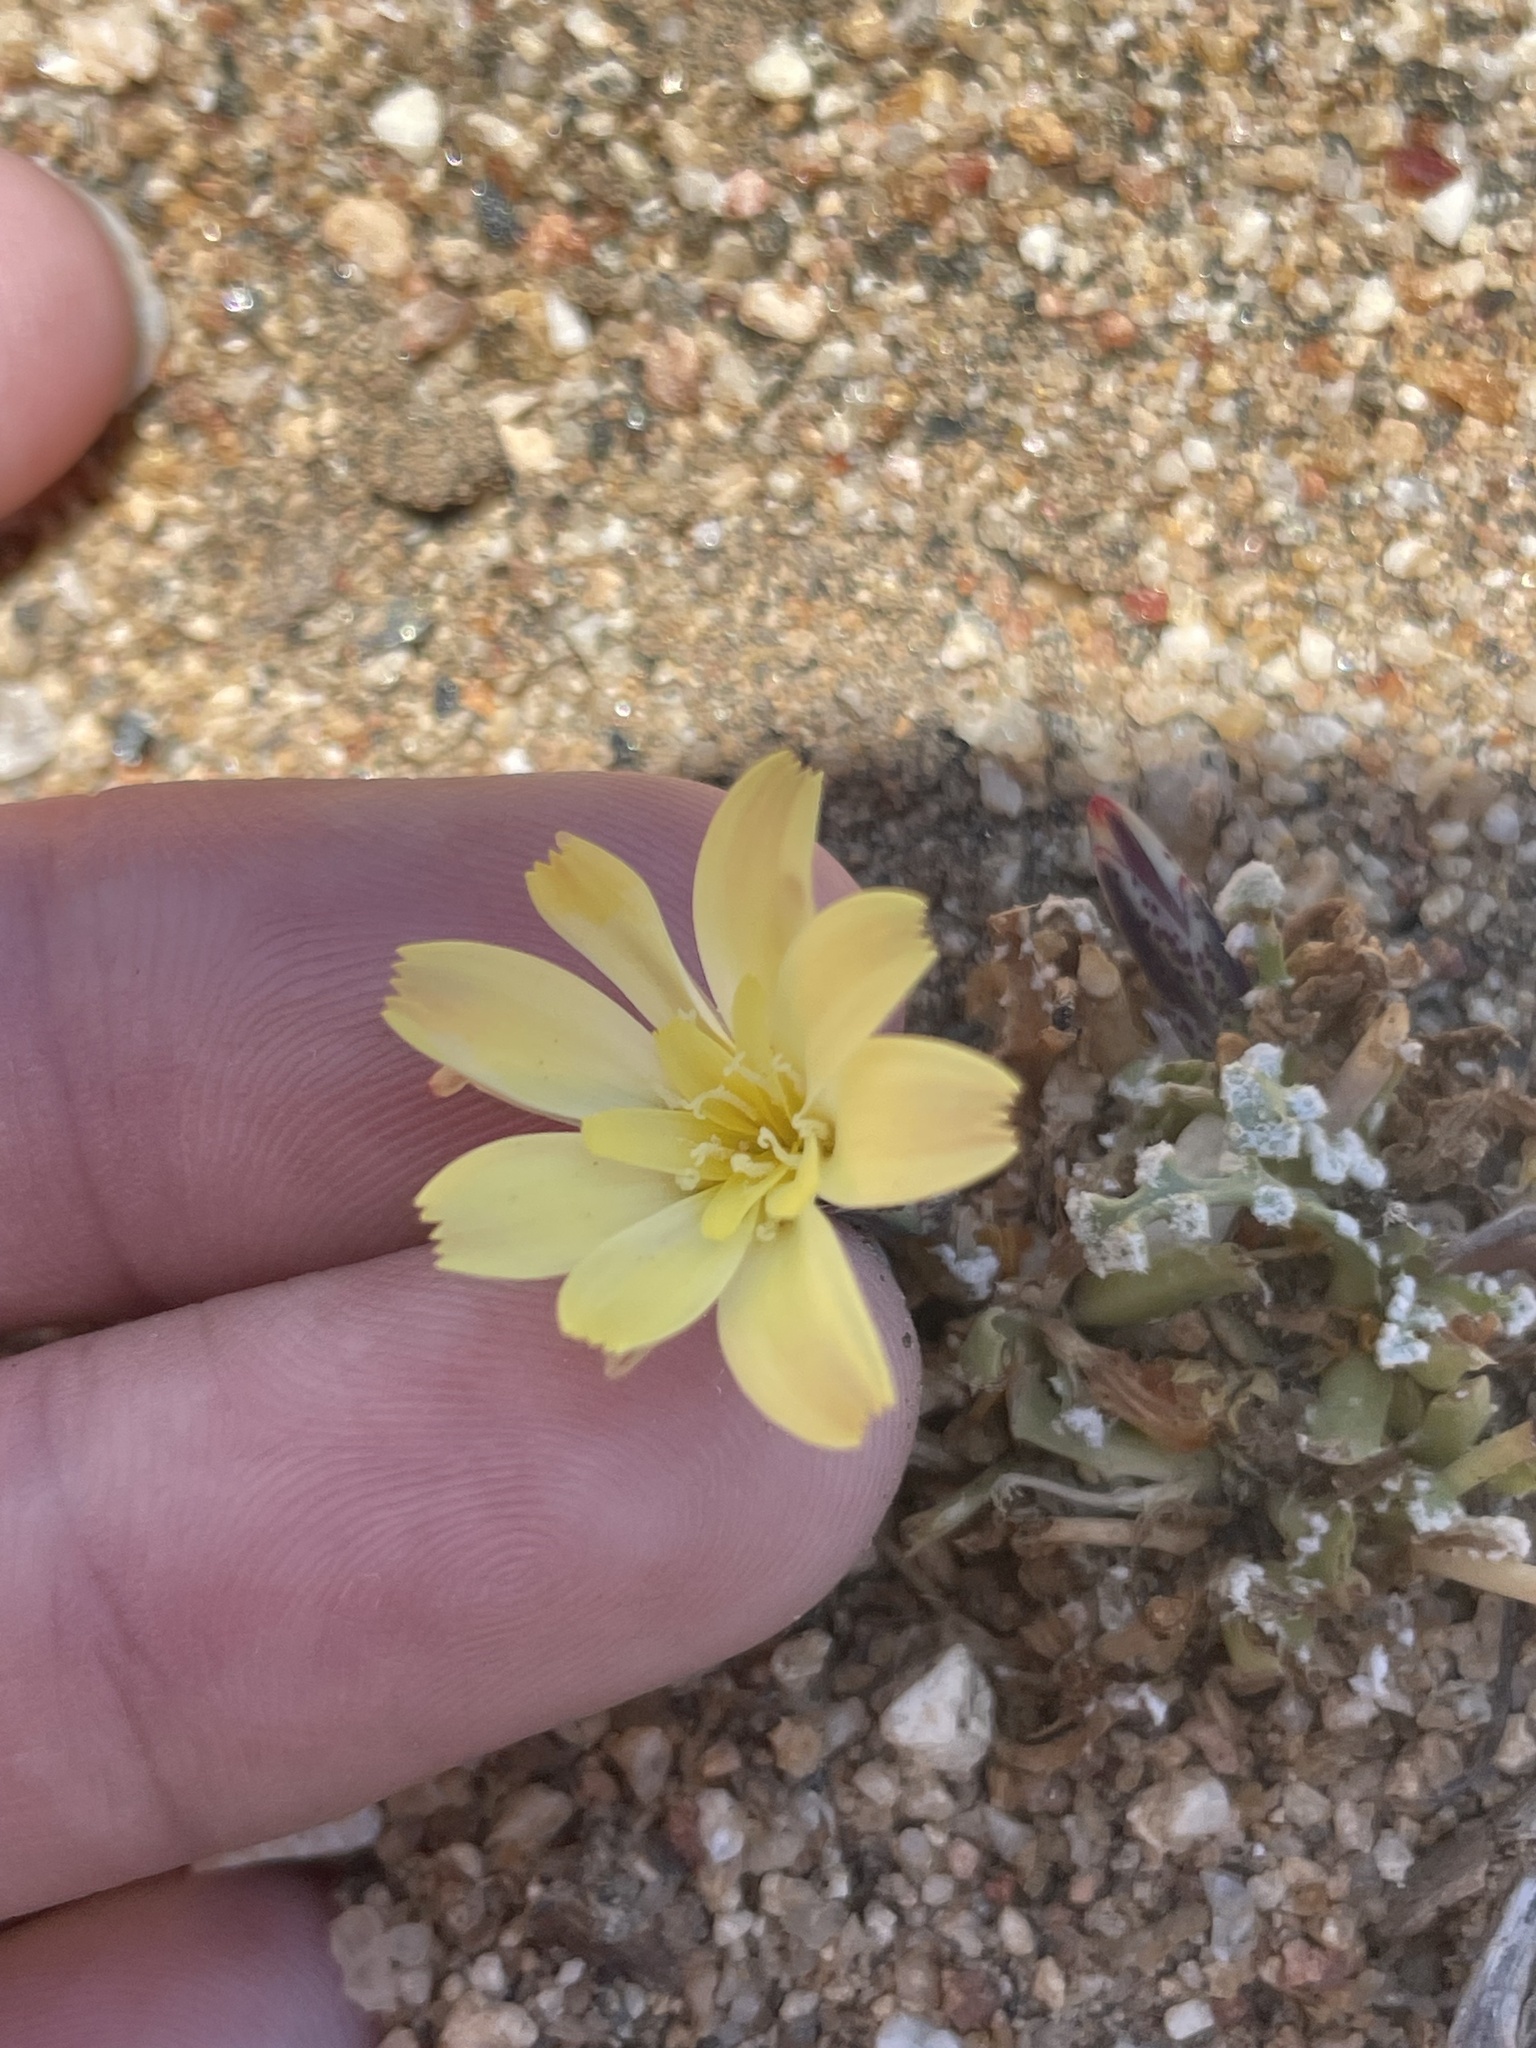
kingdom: Plantae
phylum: Tracheophyta
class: Magnoliopsida
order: Asterales
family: Asteraceae
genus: Anisocoma
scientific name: Anisocoma acaulis
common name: Scalebud
